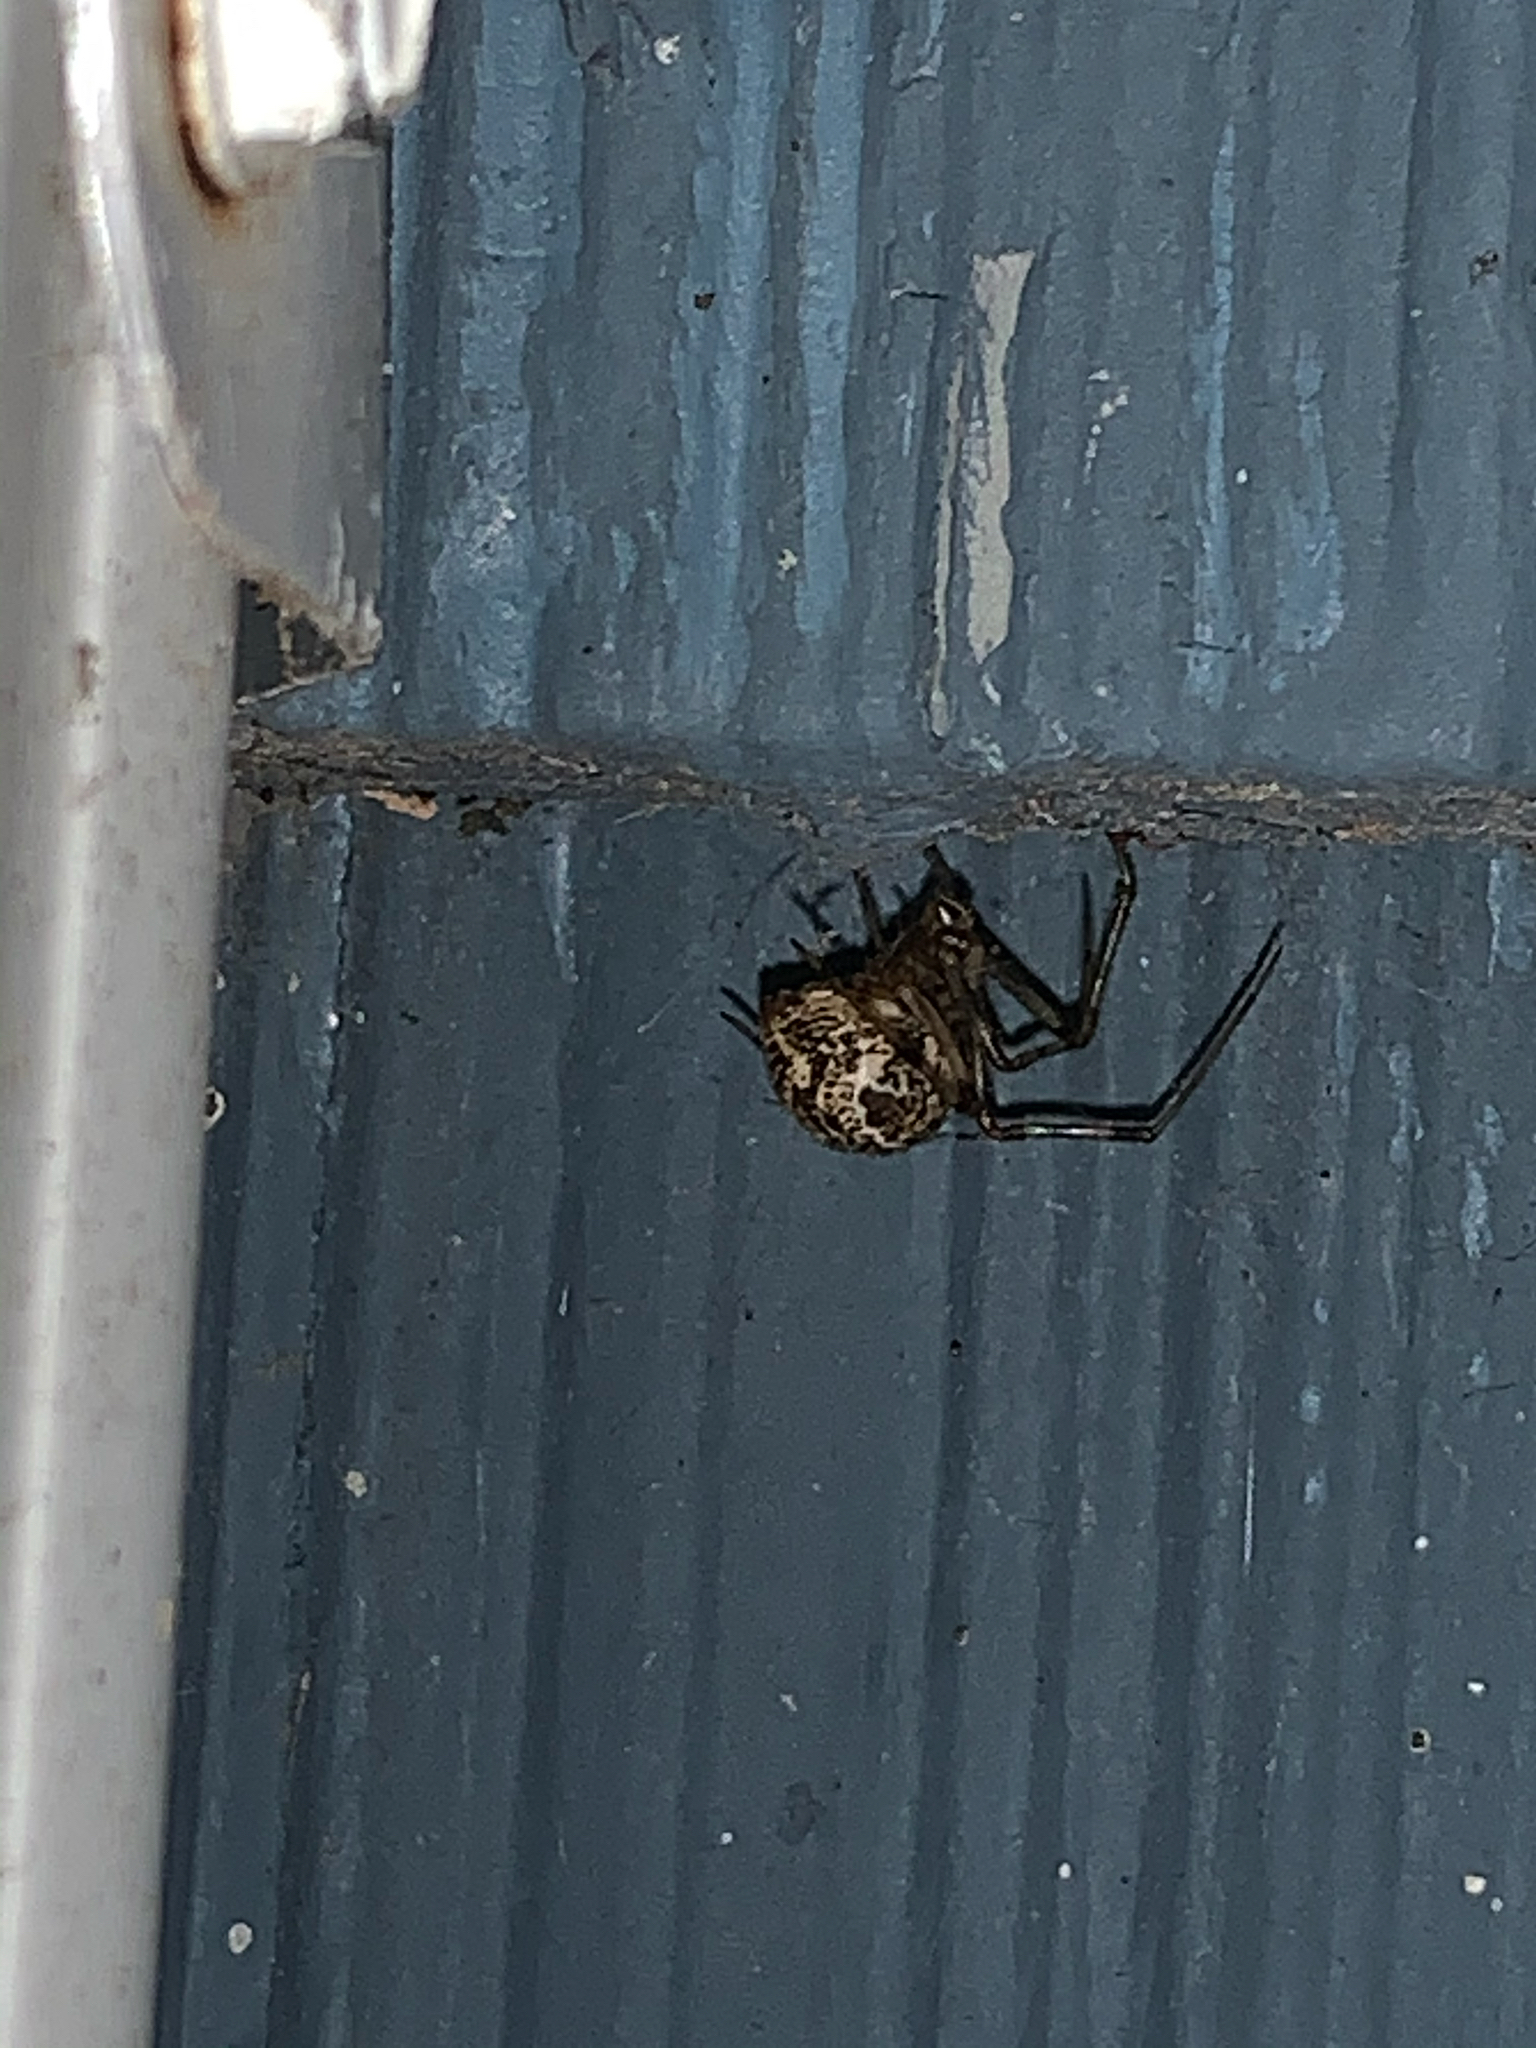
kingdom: Animalia
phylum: Arthropoda
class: Arachnida
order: Araneae
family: Theridiidae
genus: Parasteatoda
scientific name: Parasteatoda tepidariorum
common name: Common house spider
